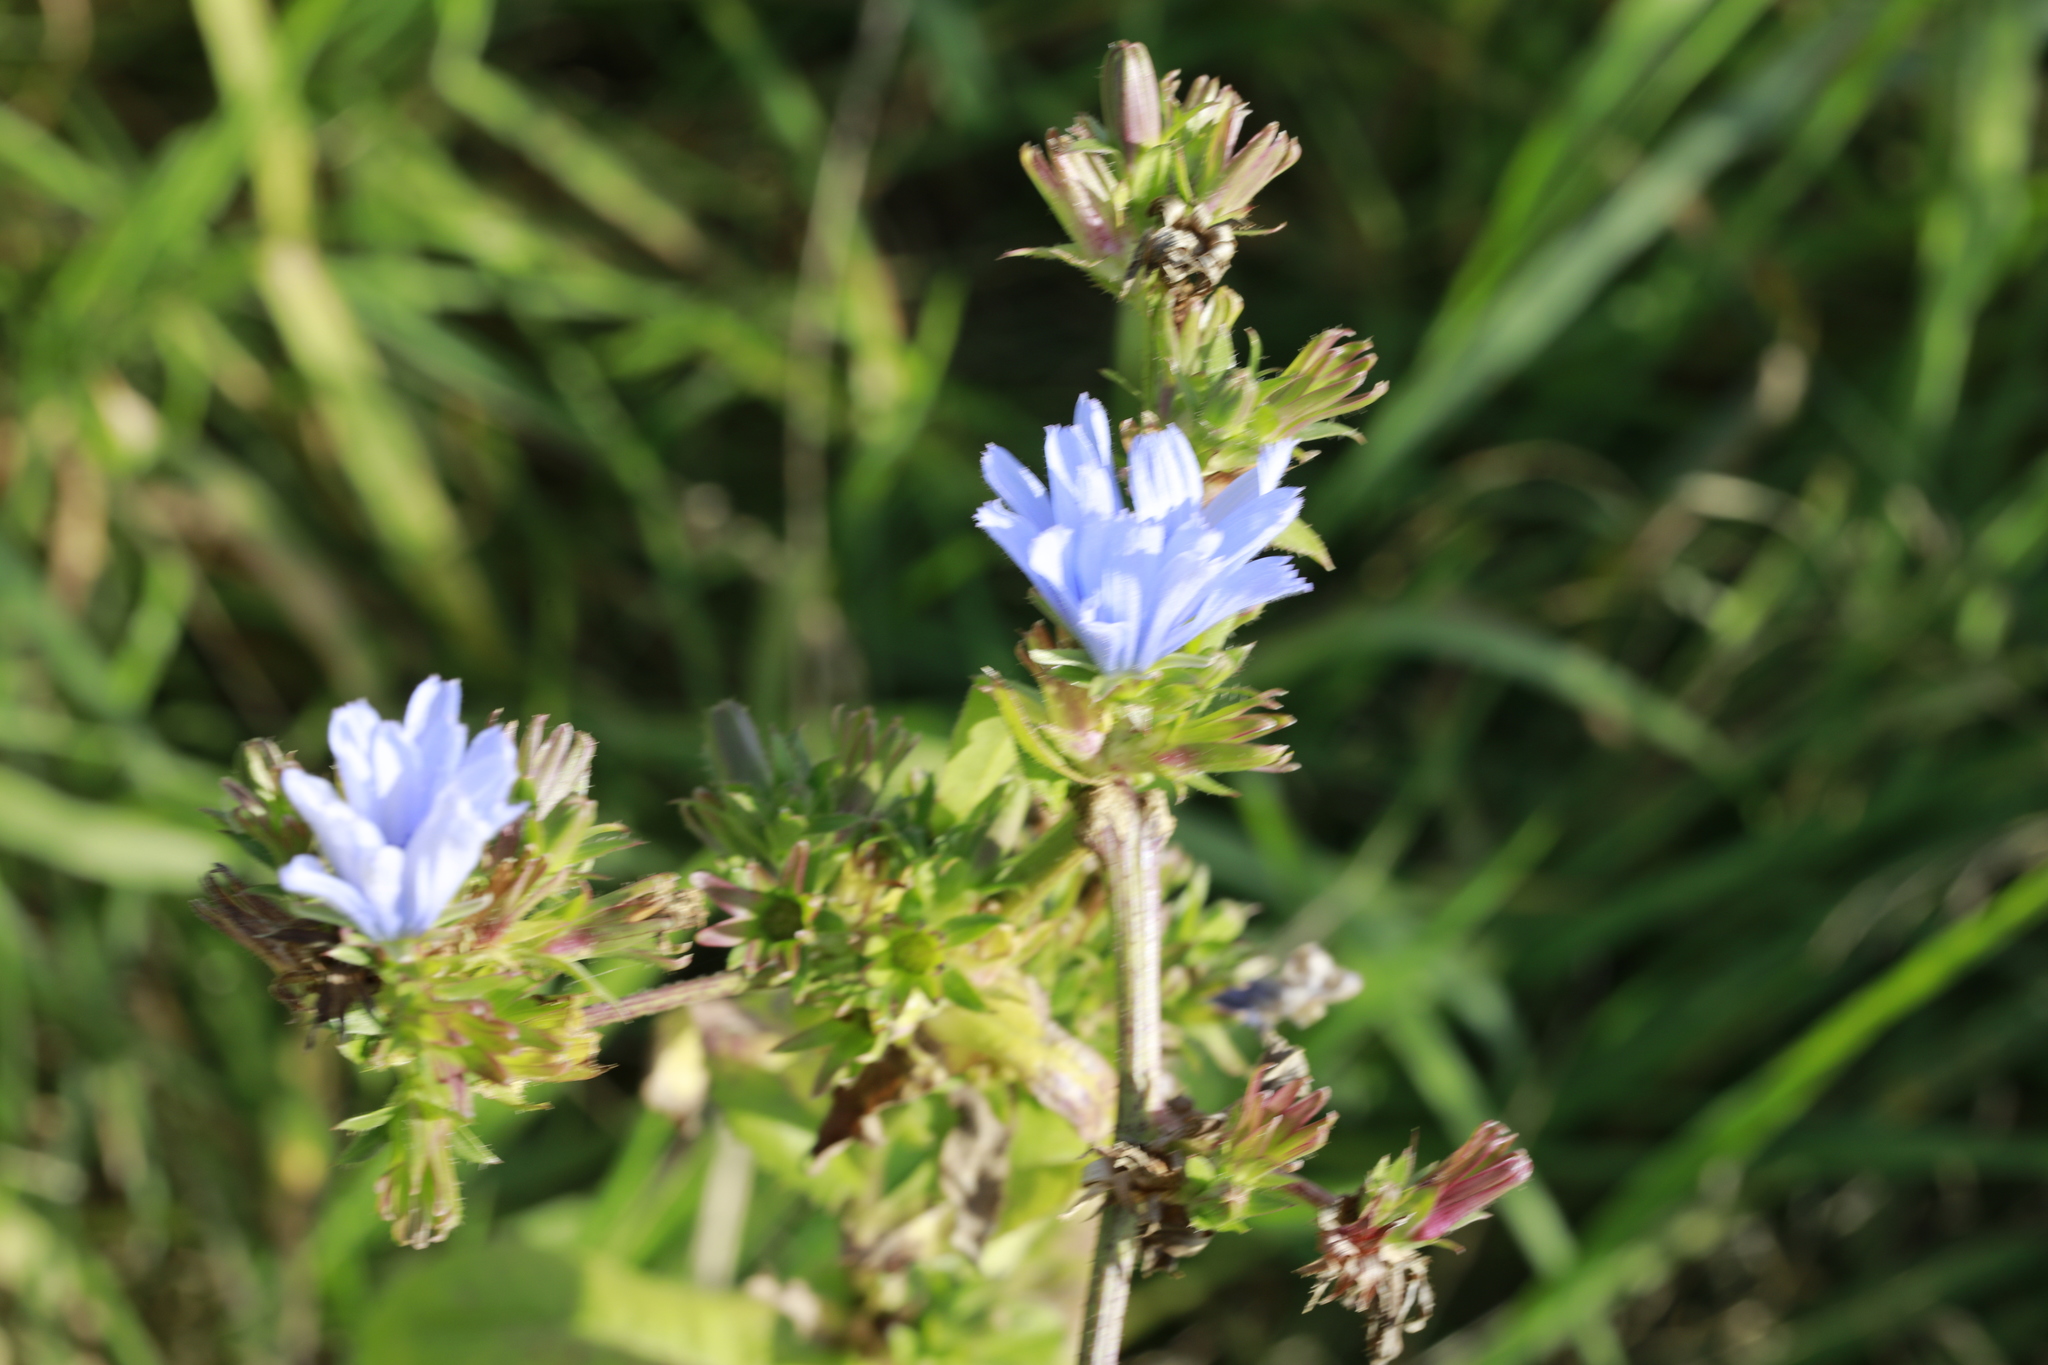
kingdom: Plantae
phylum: Tracheophyta
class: Magnoliopsida
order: Asterales
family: Asteraceae
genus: Cichorium
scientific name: Cichorium intybus
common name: Chicory
